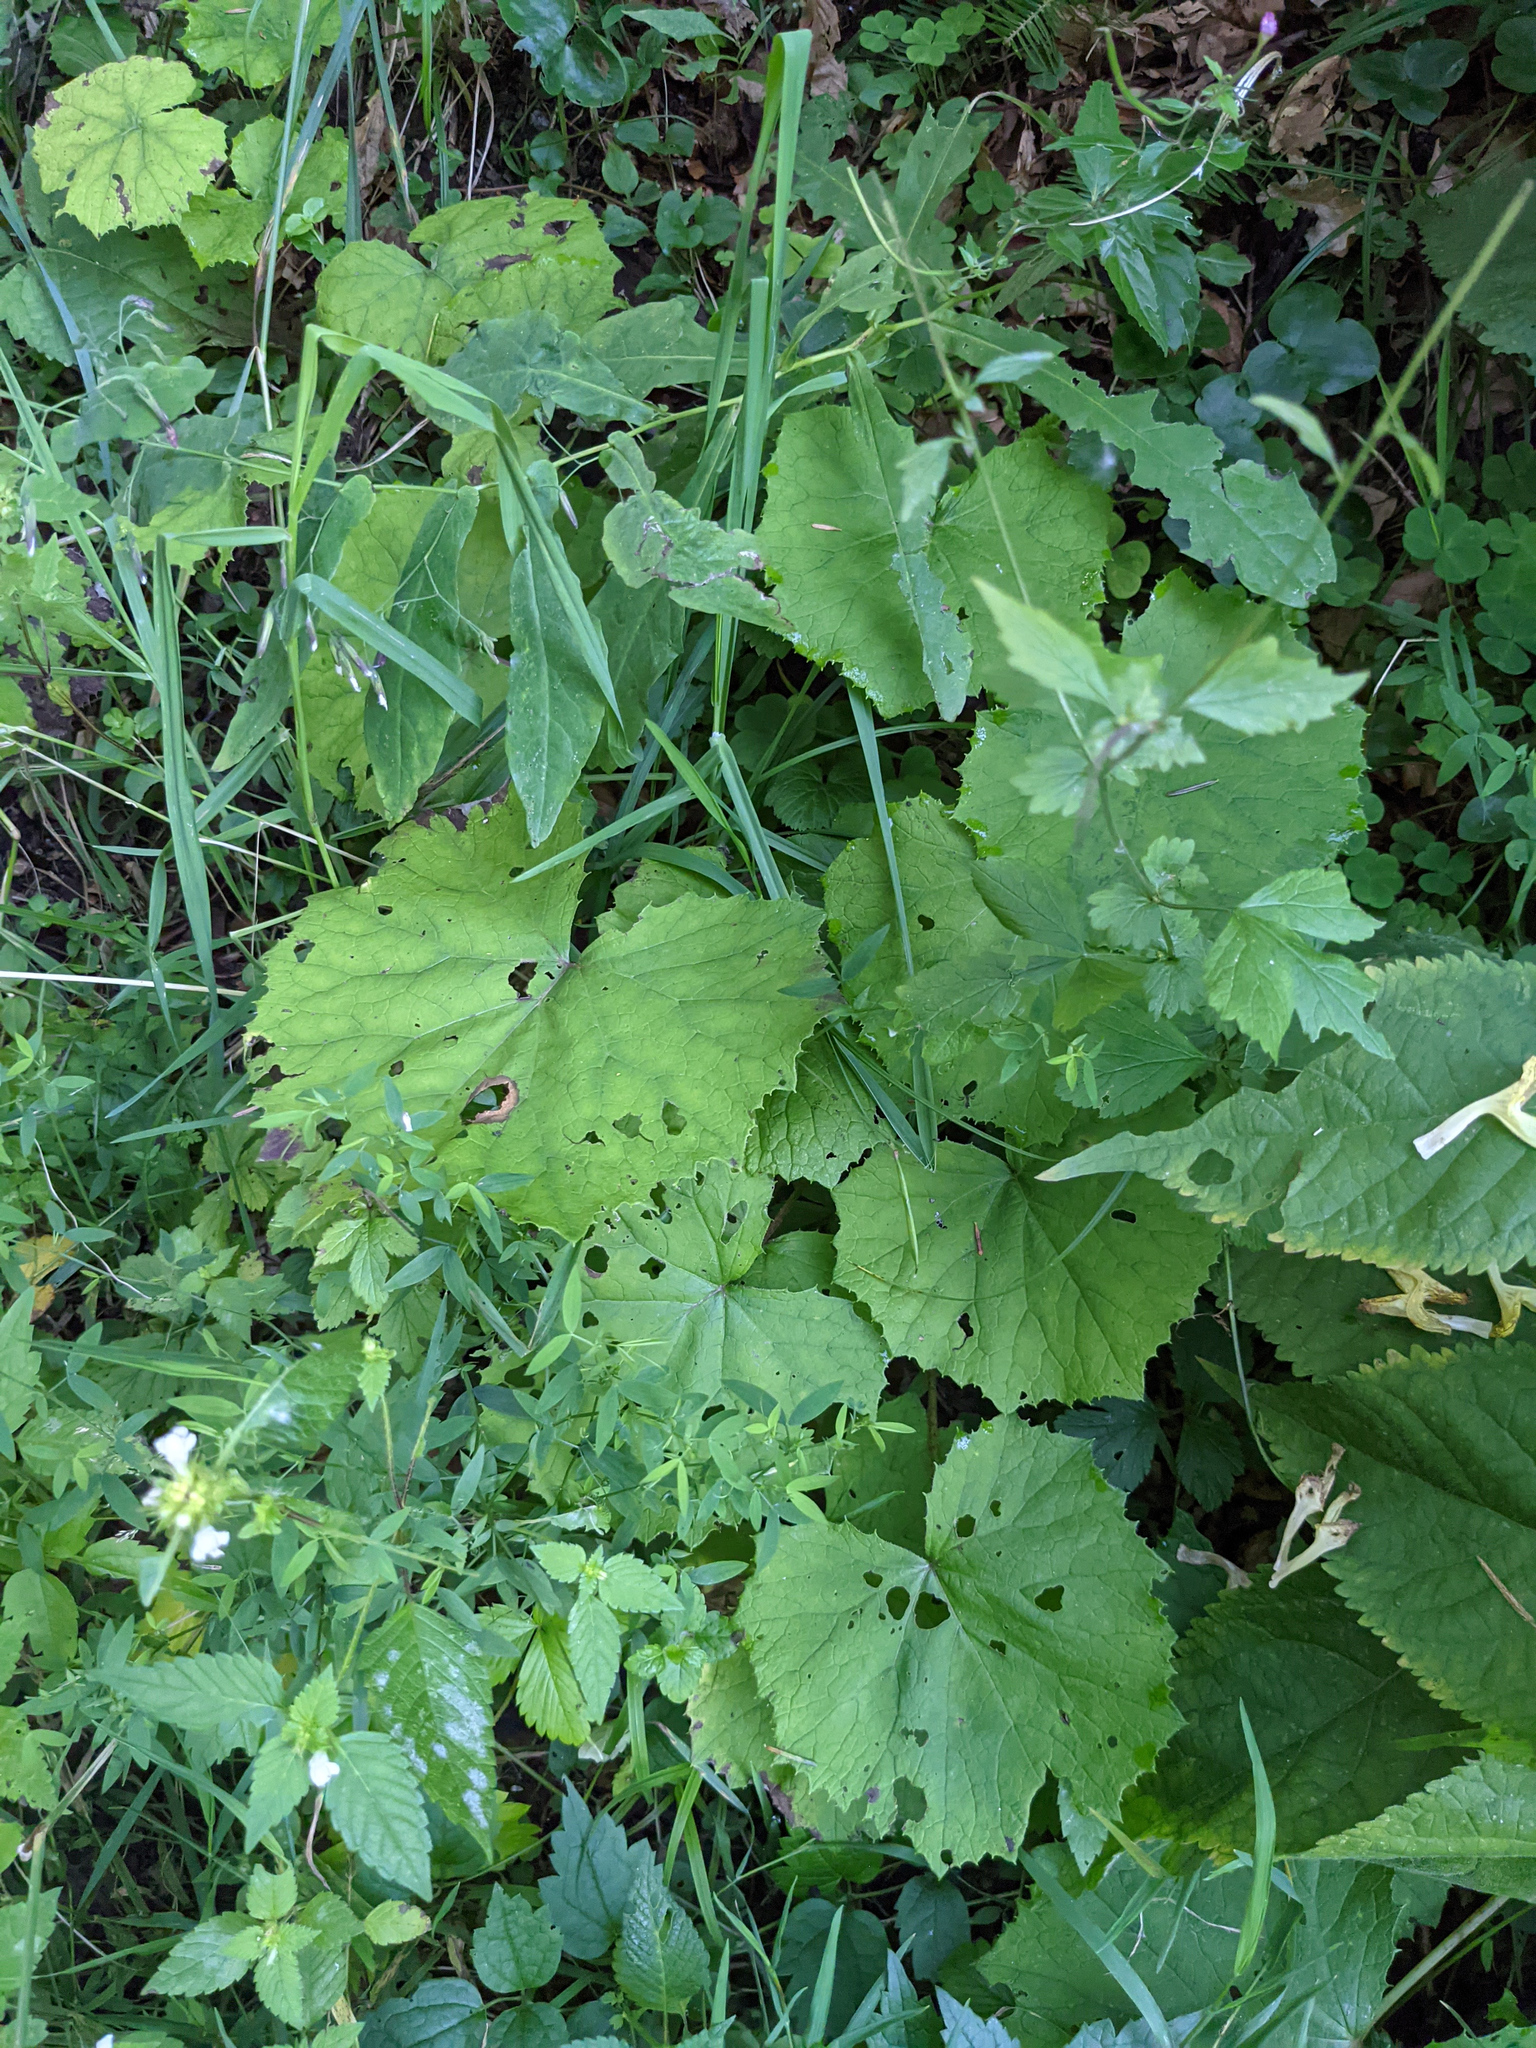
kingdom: Plantae
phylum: Tracheophyta
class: Magnoliopsida
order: Asterales
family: Asteraceae
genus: Petasites
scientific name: Petasites albus
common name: White butterbur
